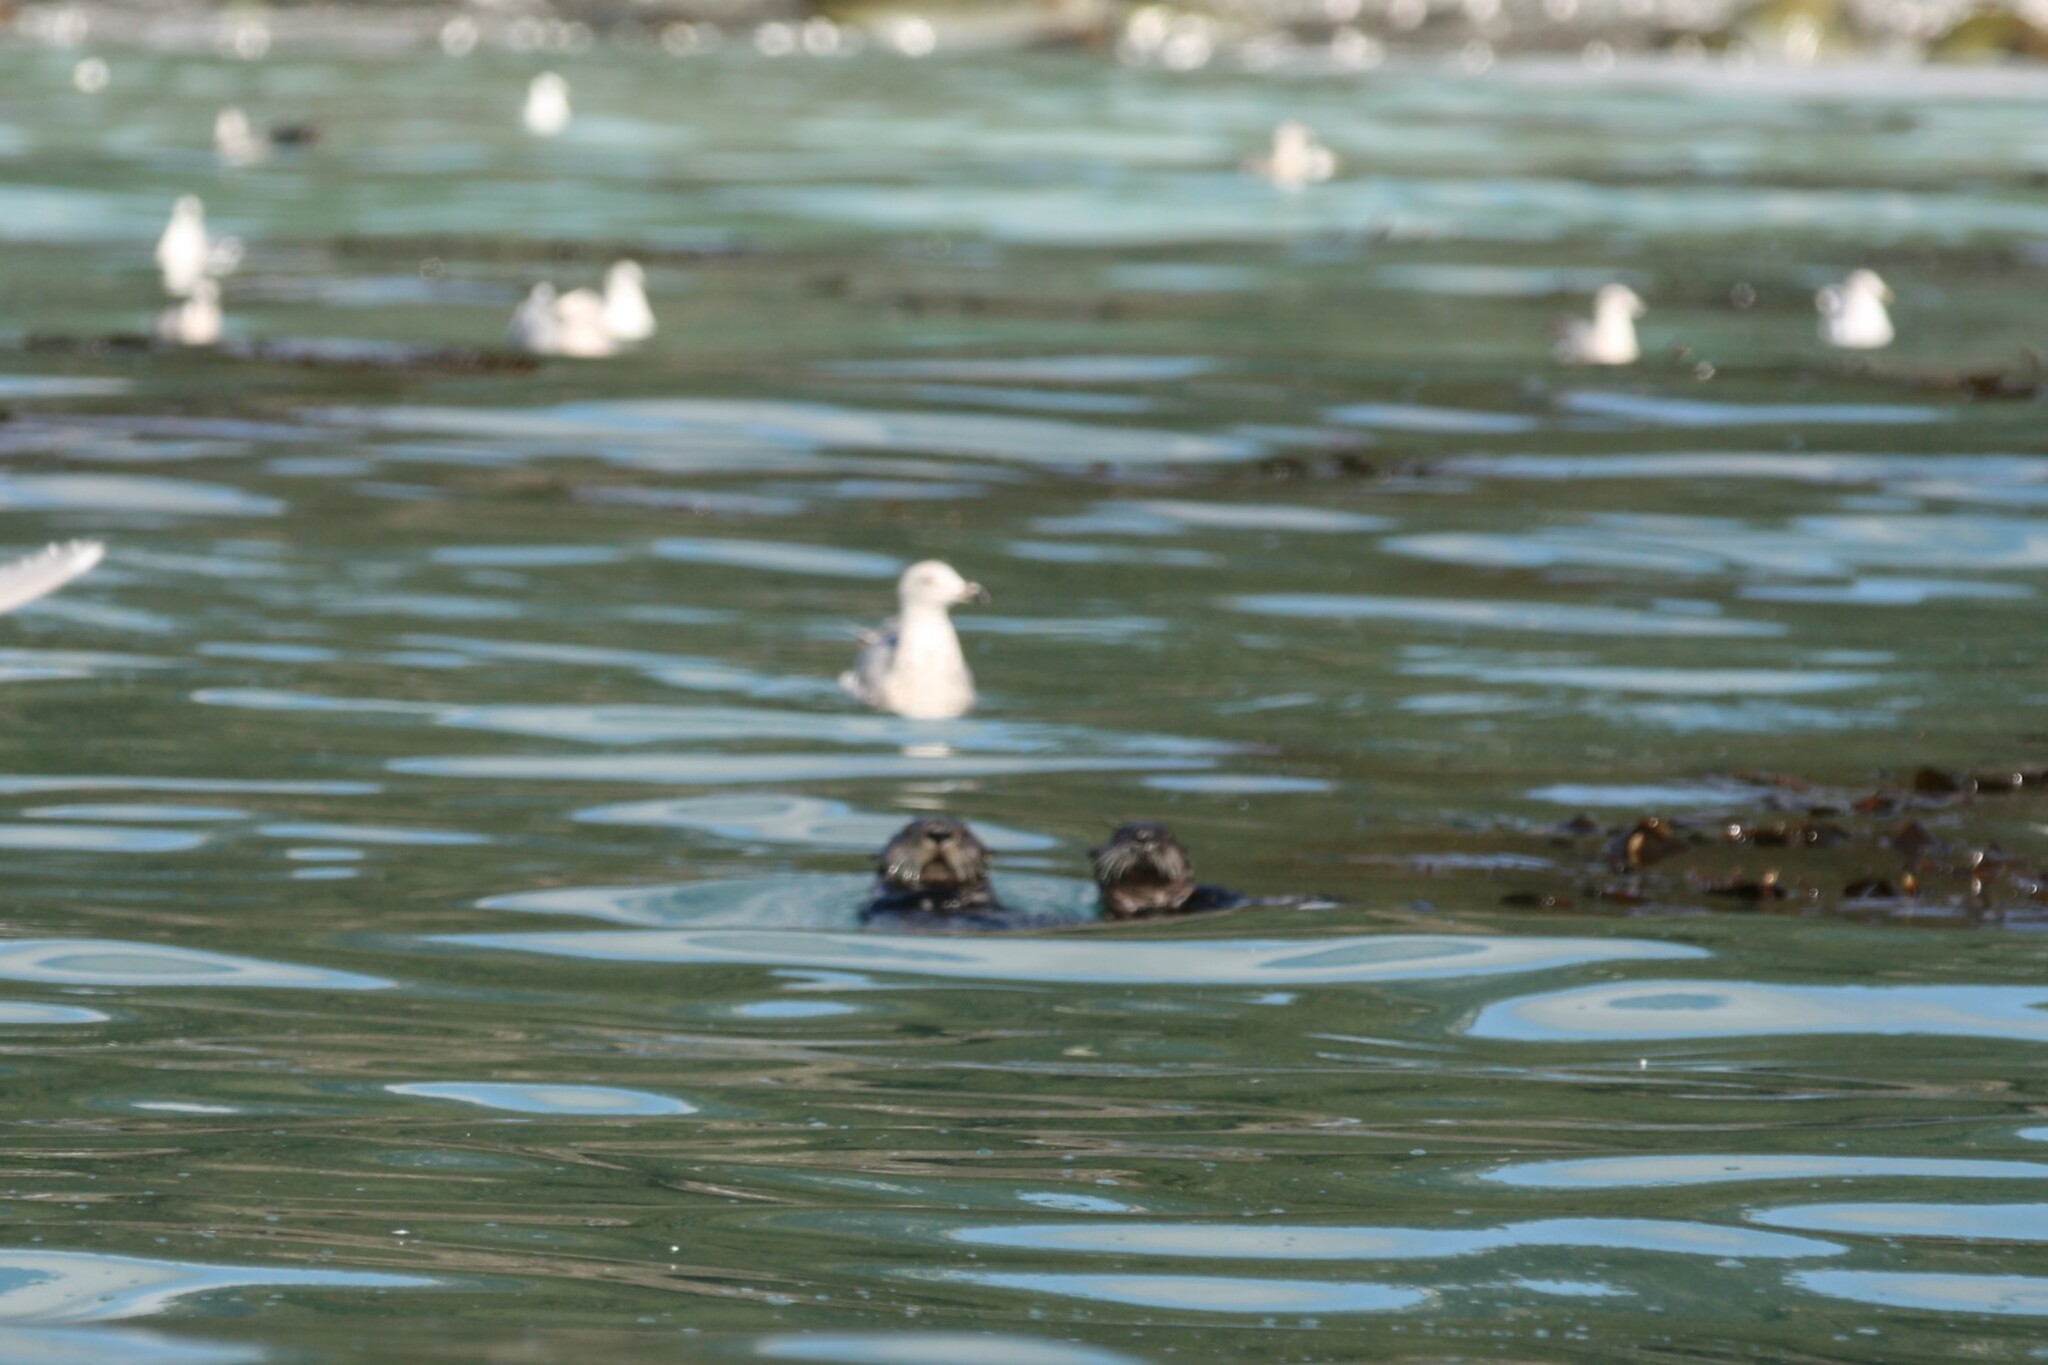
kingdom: Animalia
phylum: Chordata
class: Mammalia
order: Carnivora
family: Mustelidae
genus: Enhydra
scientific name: Enhydra lutris
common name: Sea otter
